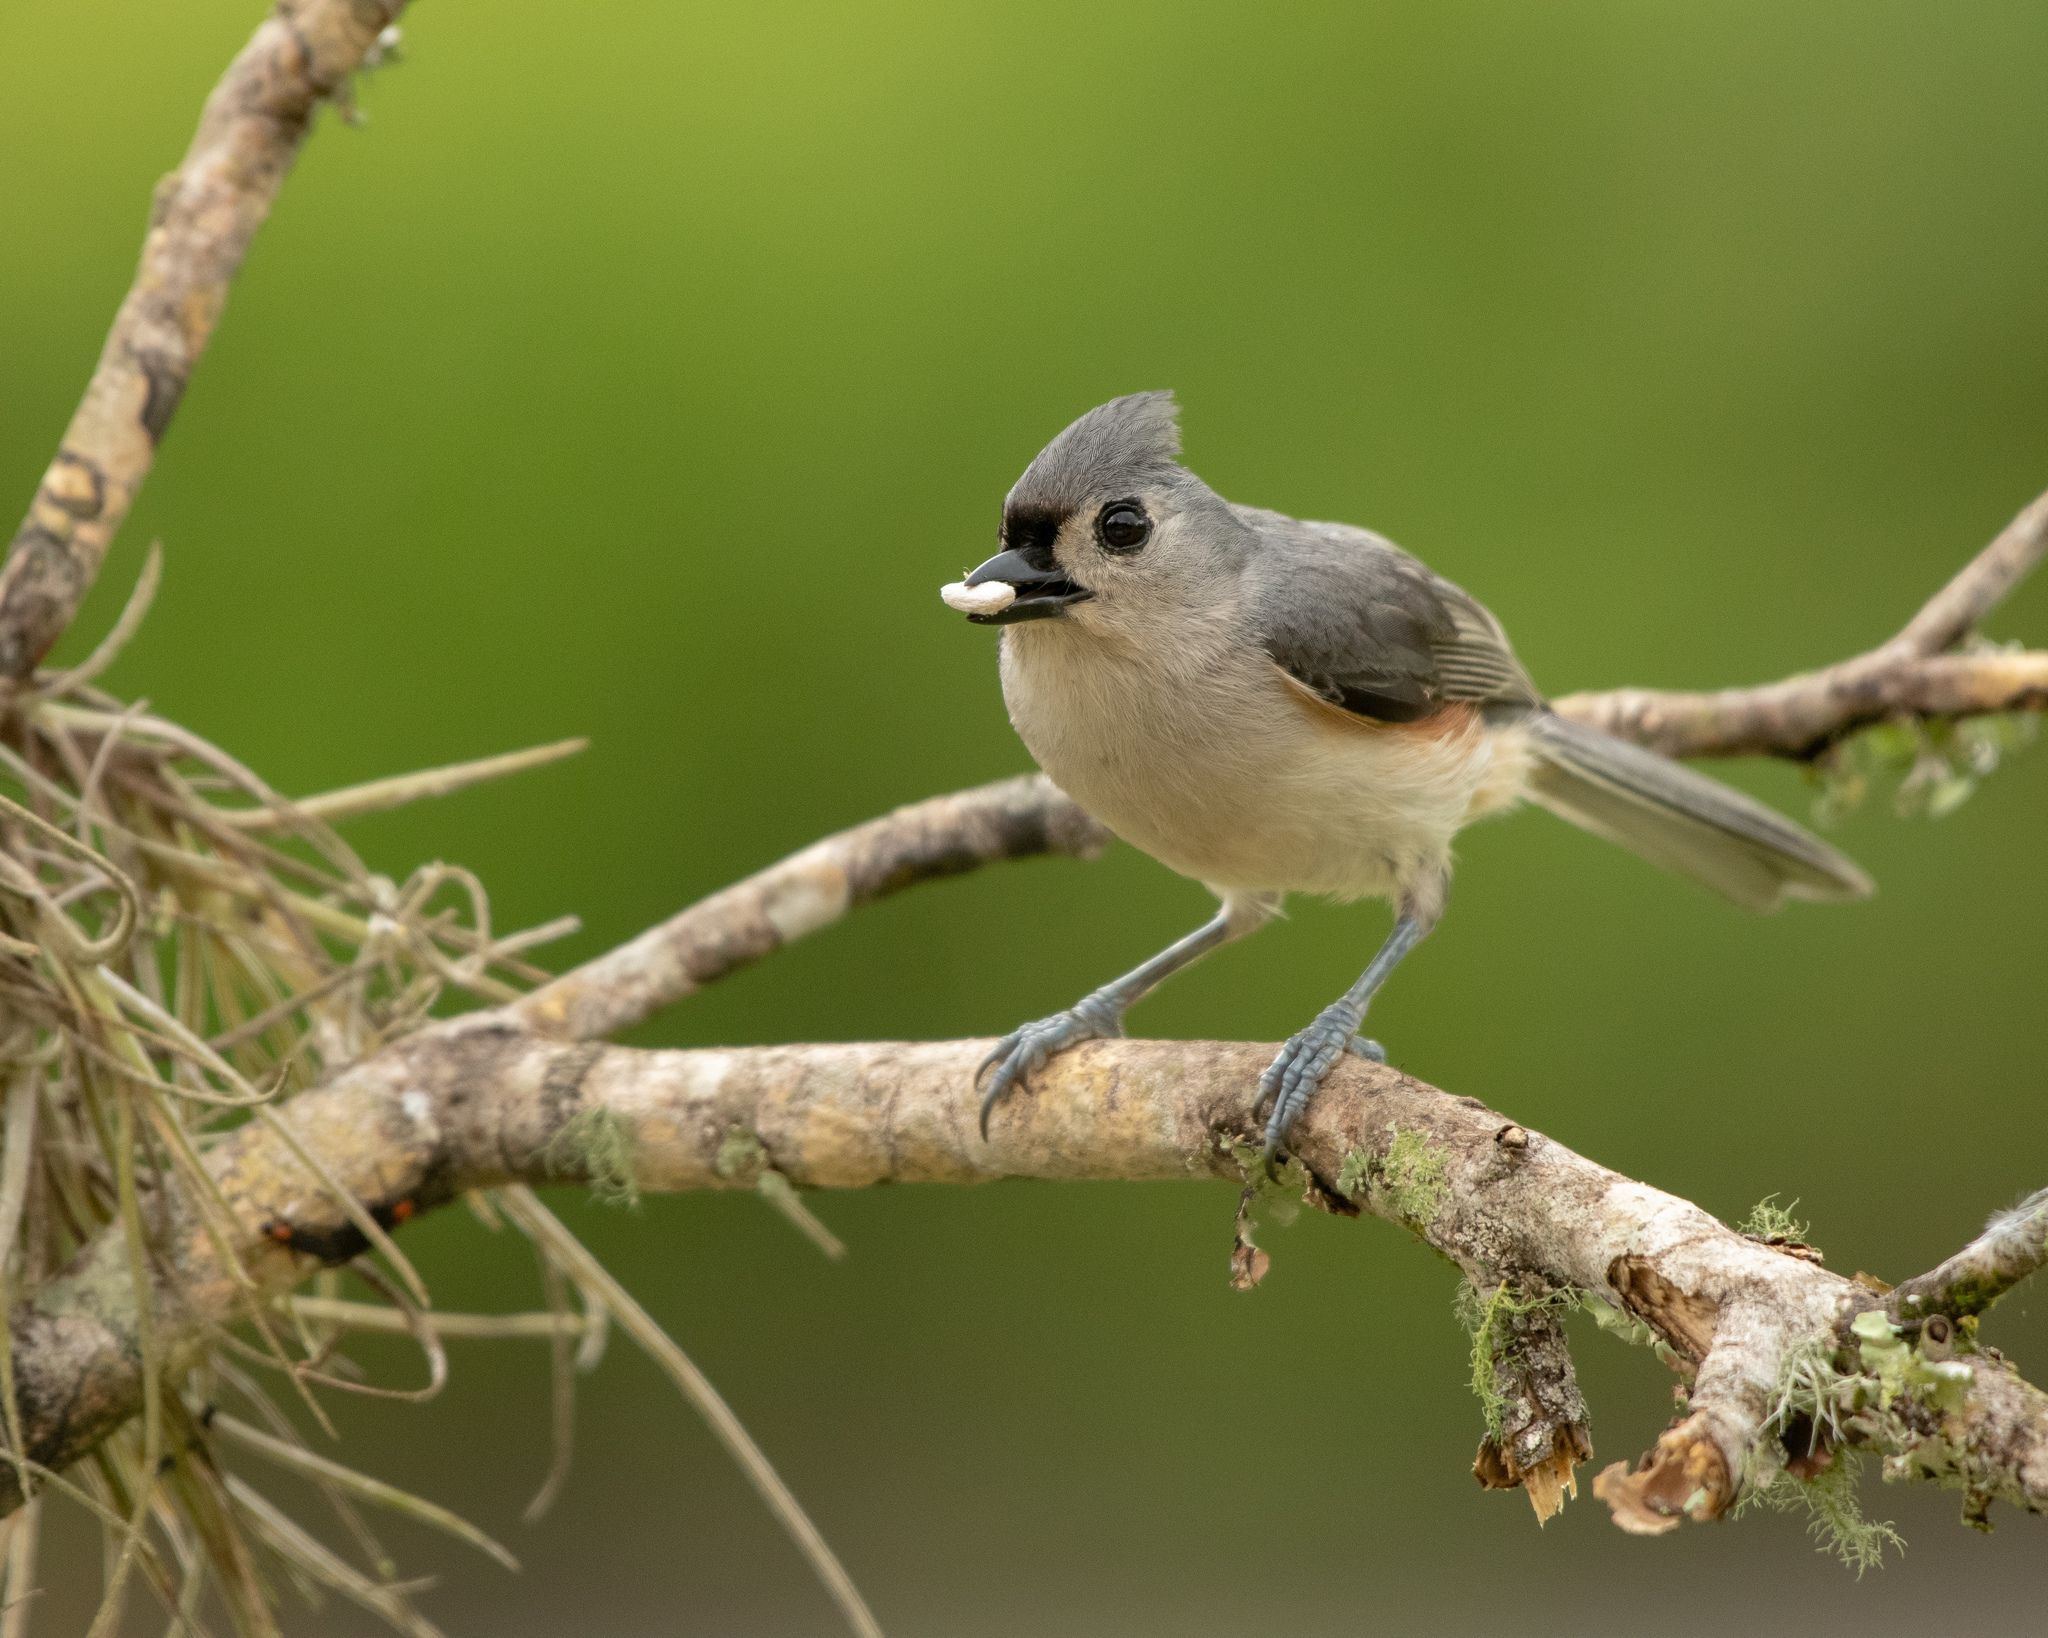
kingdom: Animalia
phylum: Chordata
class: Aves
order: Passeriformes
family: Paridae
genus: Baeolophus
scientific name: Baeolophus bicolor
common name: Tufted titmouse
